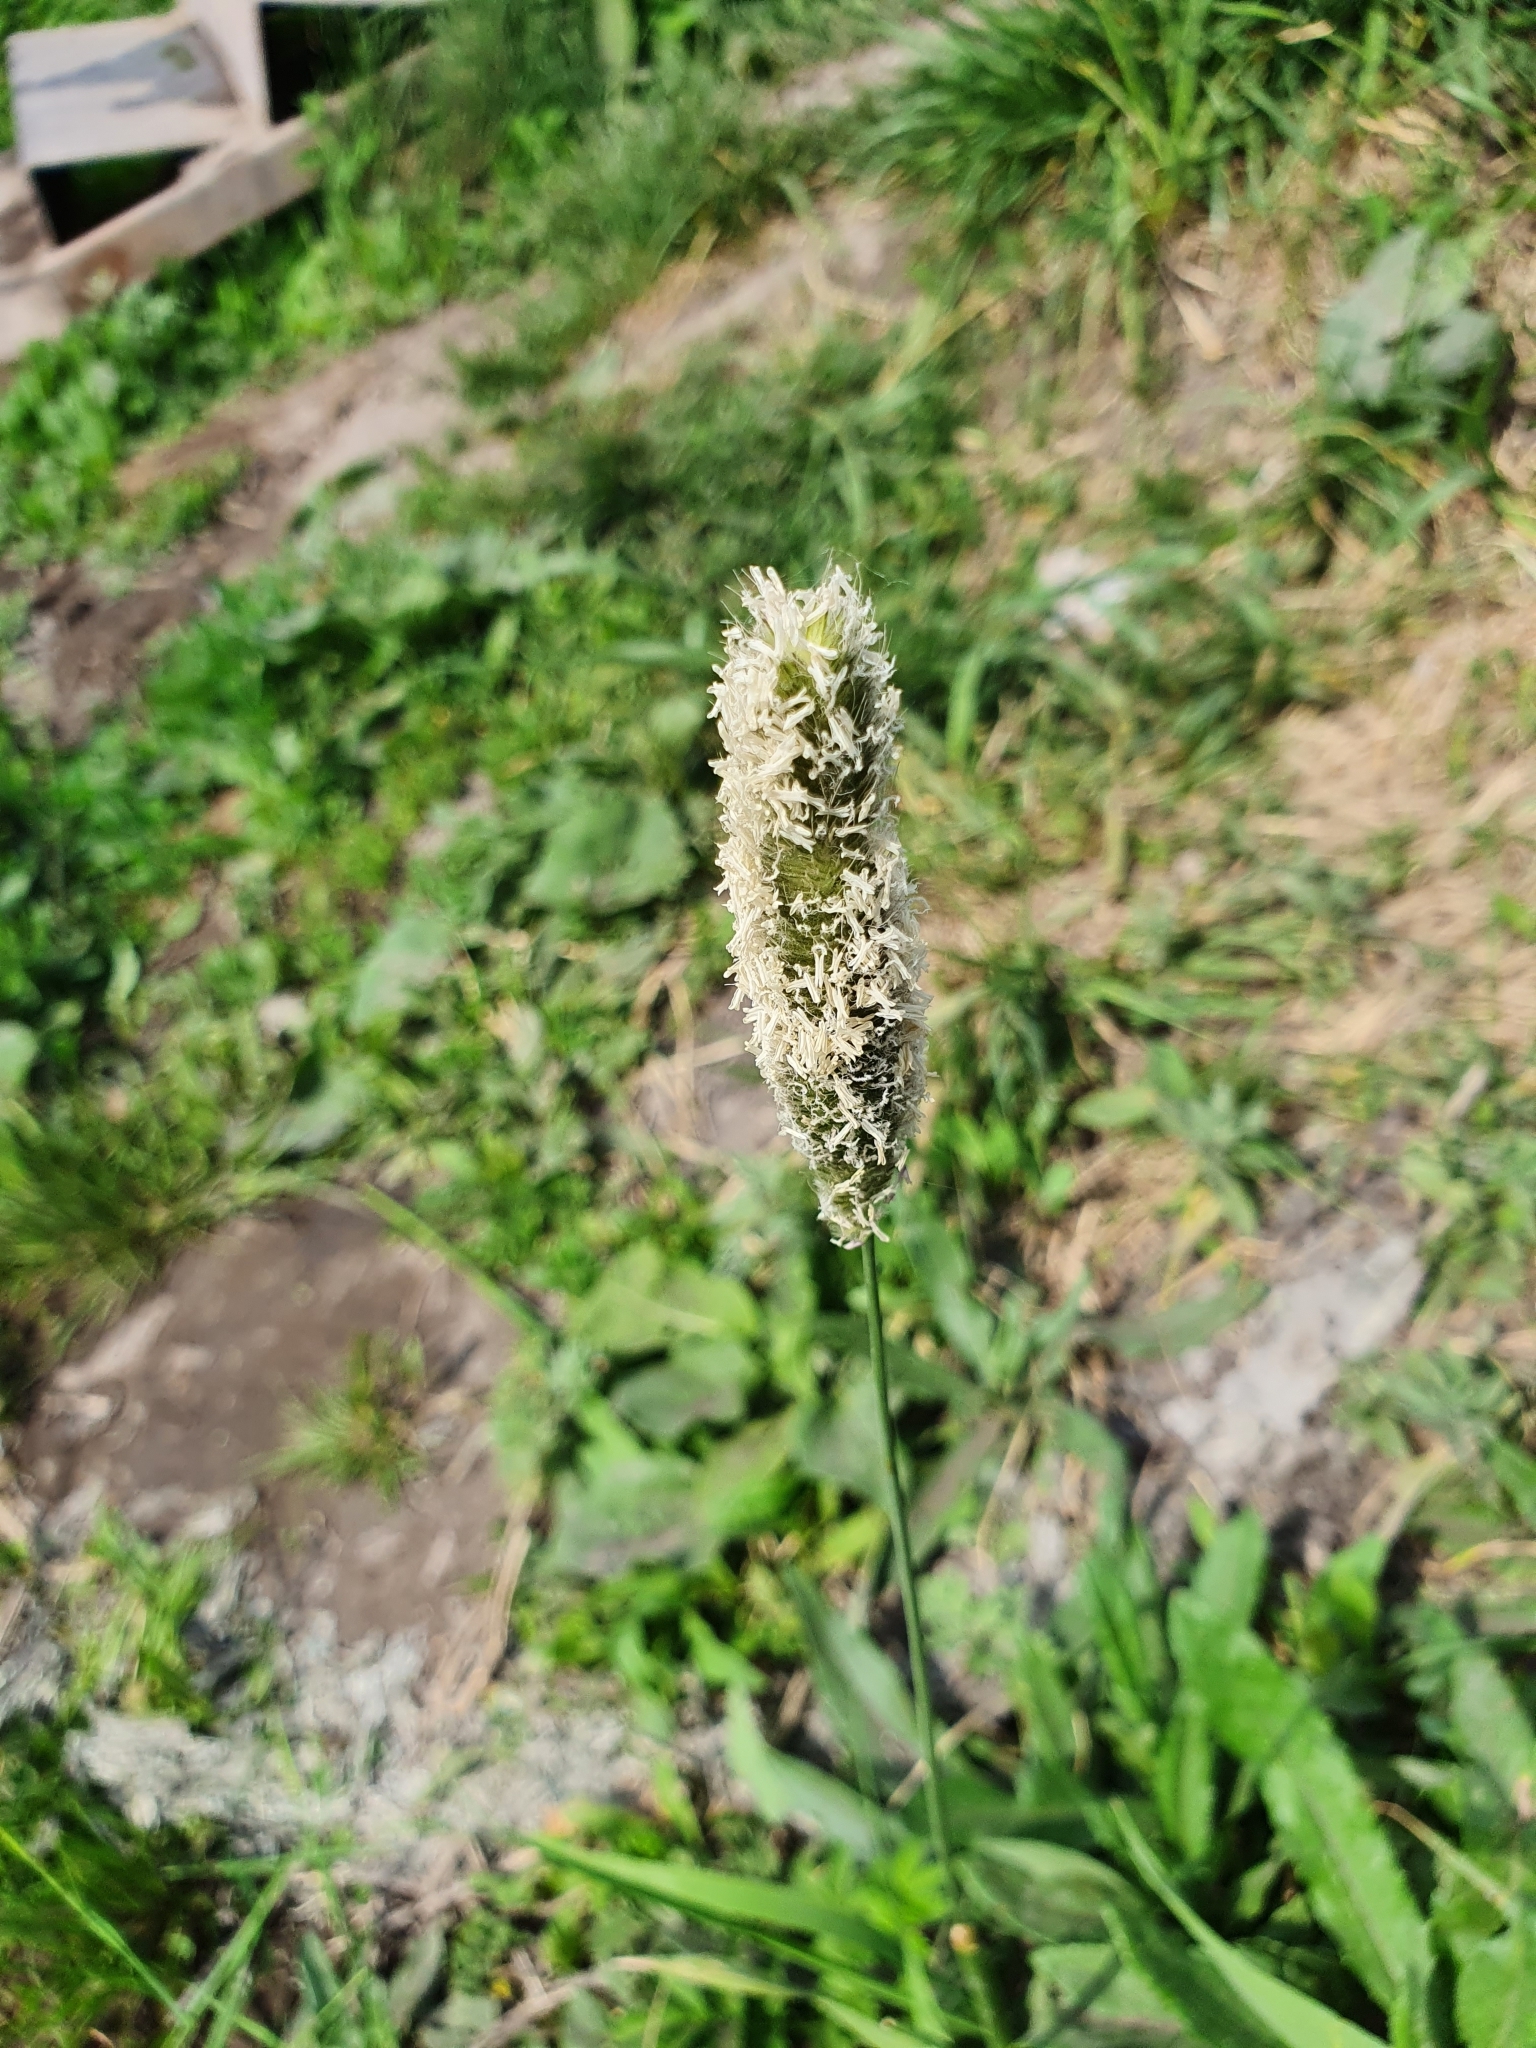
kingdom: Plantae
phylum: Tracheophyta
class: Liliopsida
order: Poales
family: Poaceae
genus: Alopecurus
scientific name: Alopecurus pratensis
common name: Meadow foxtail
